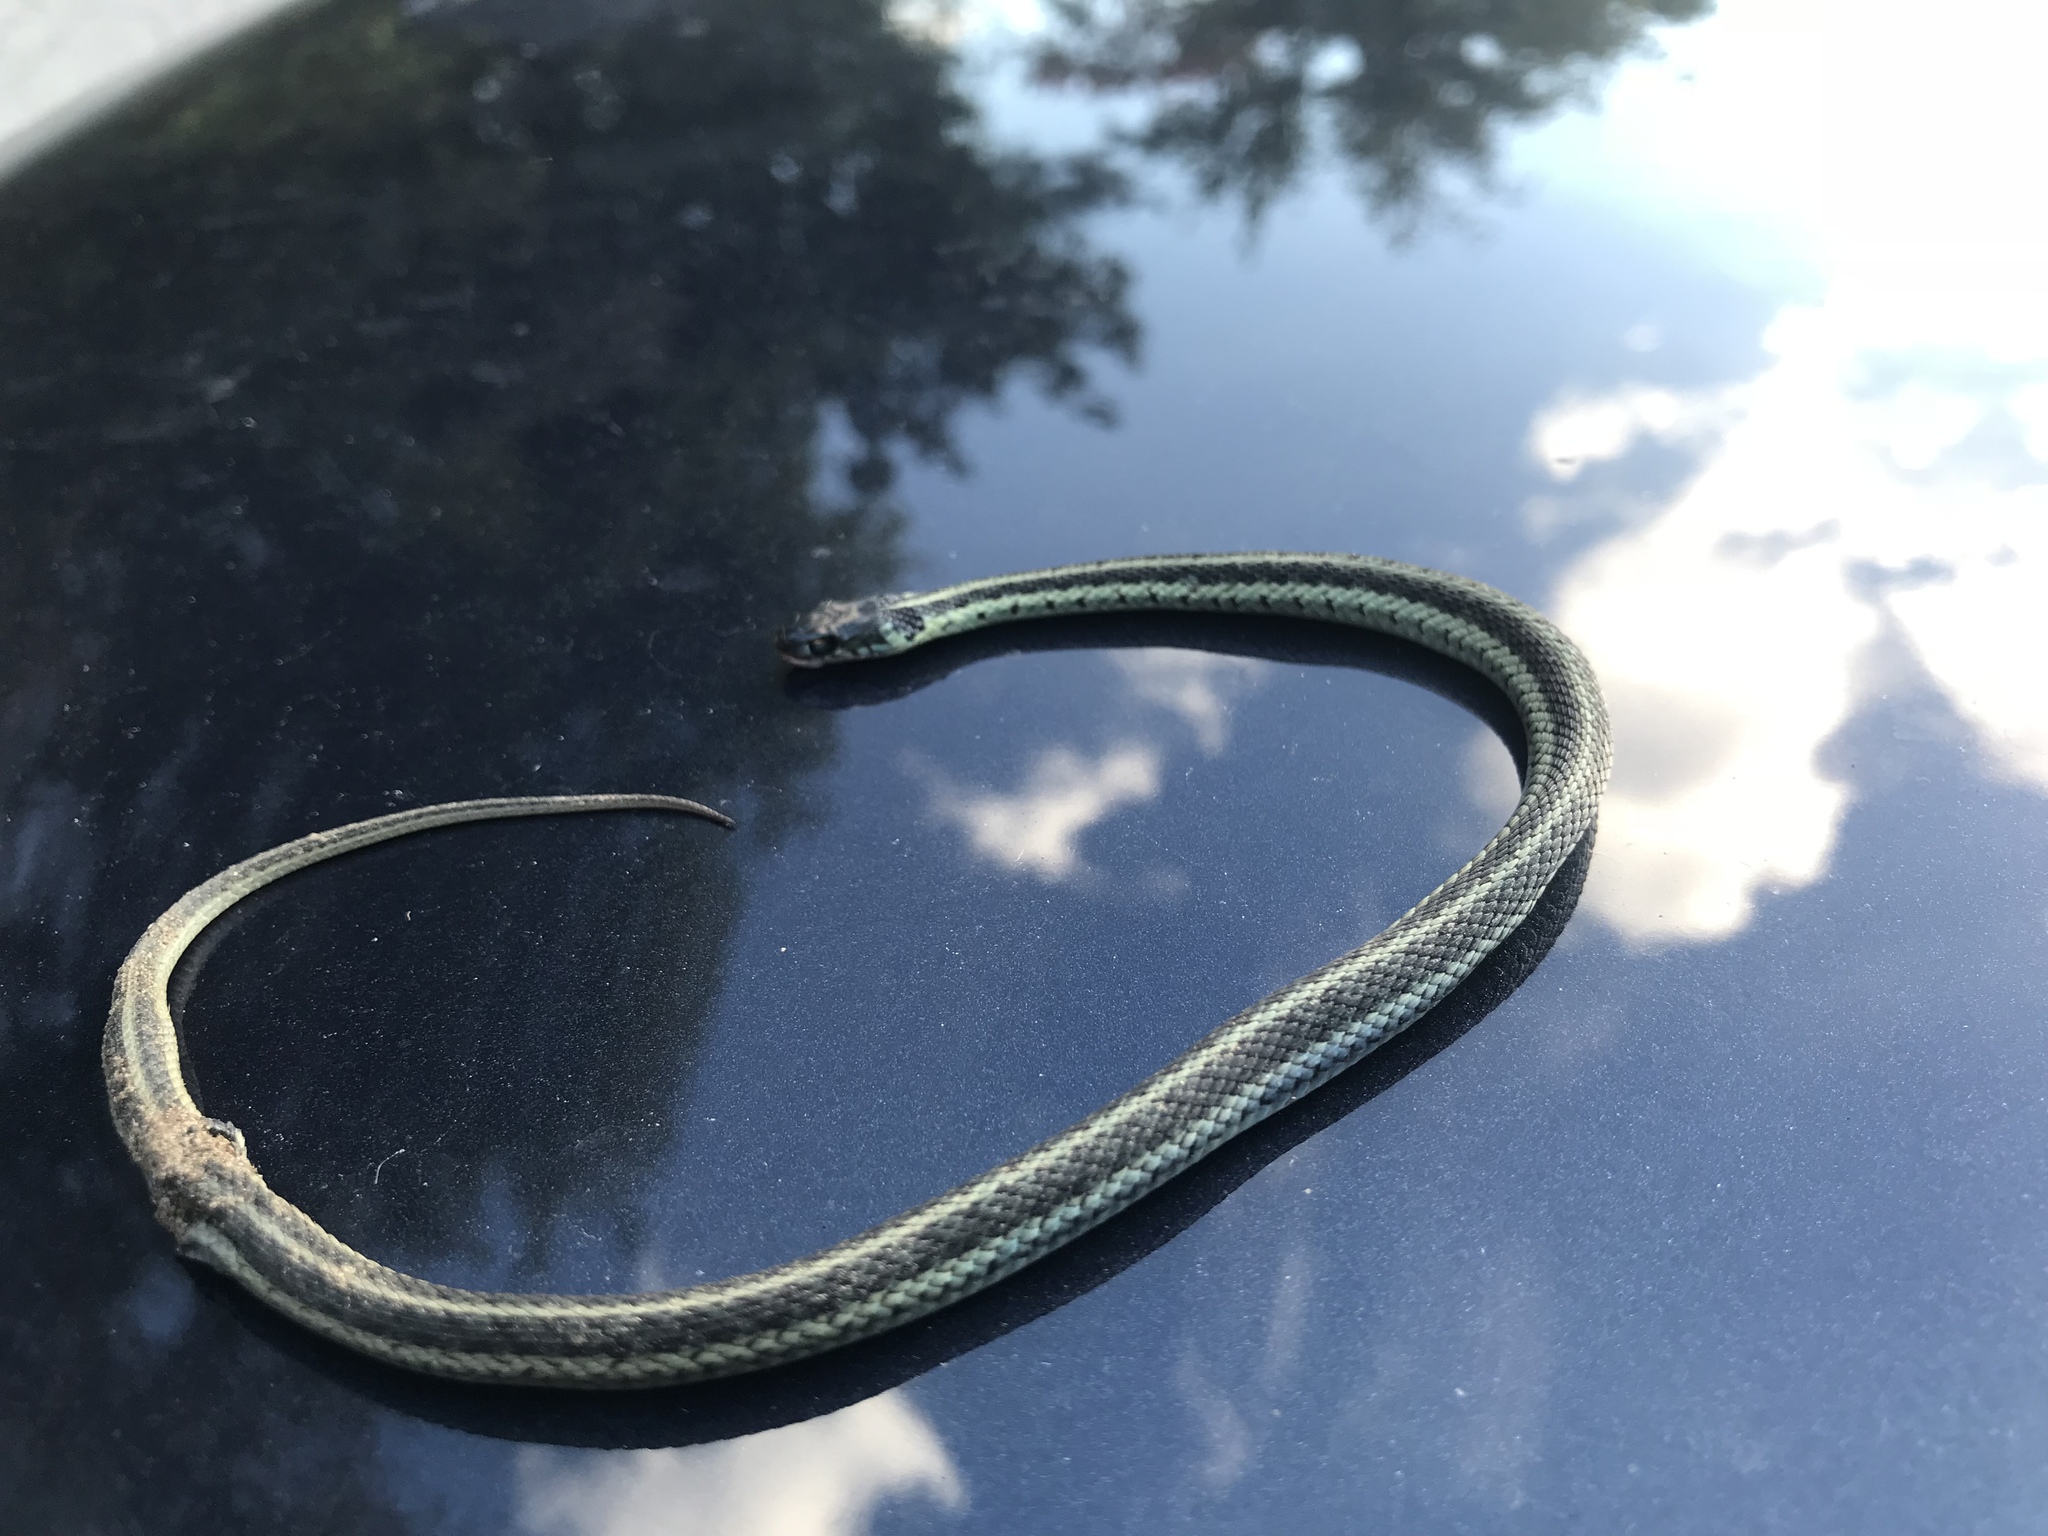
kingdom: Animalia
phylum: Chordata
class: Squamata
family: Colubridae
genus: Thamnophis
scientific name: Thamnophis sirtalis
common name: Common garter snake
